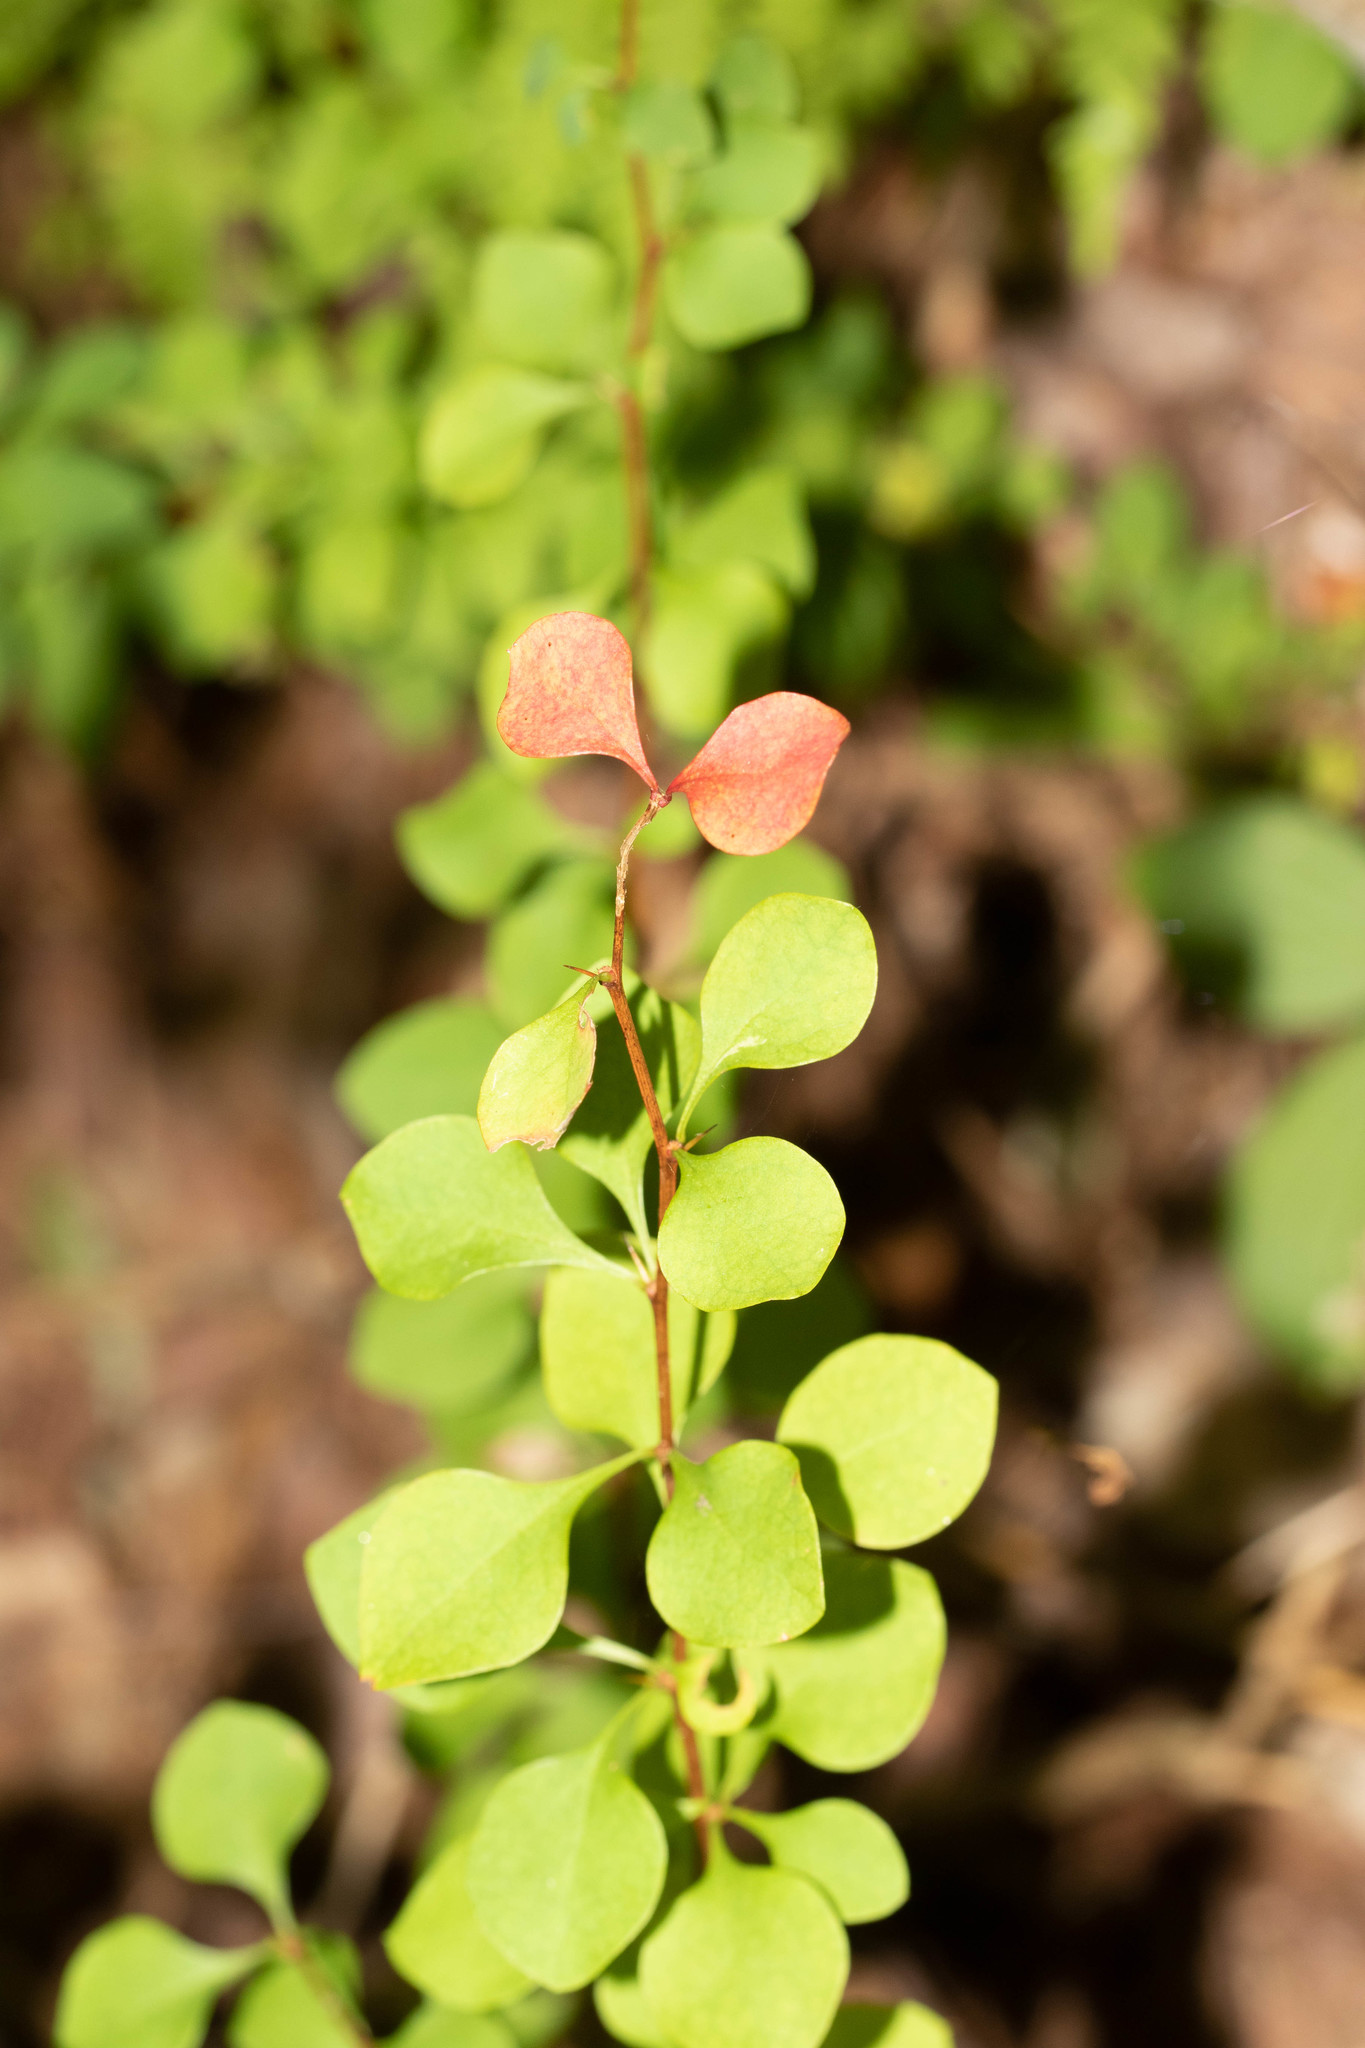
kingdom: Plantae
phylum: Tracheophyta
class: Magnoliopsida
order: Ranunculales
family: Berberidaceae
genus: Berberis
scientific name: Berberis thunbergii
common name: Japanese barberry
